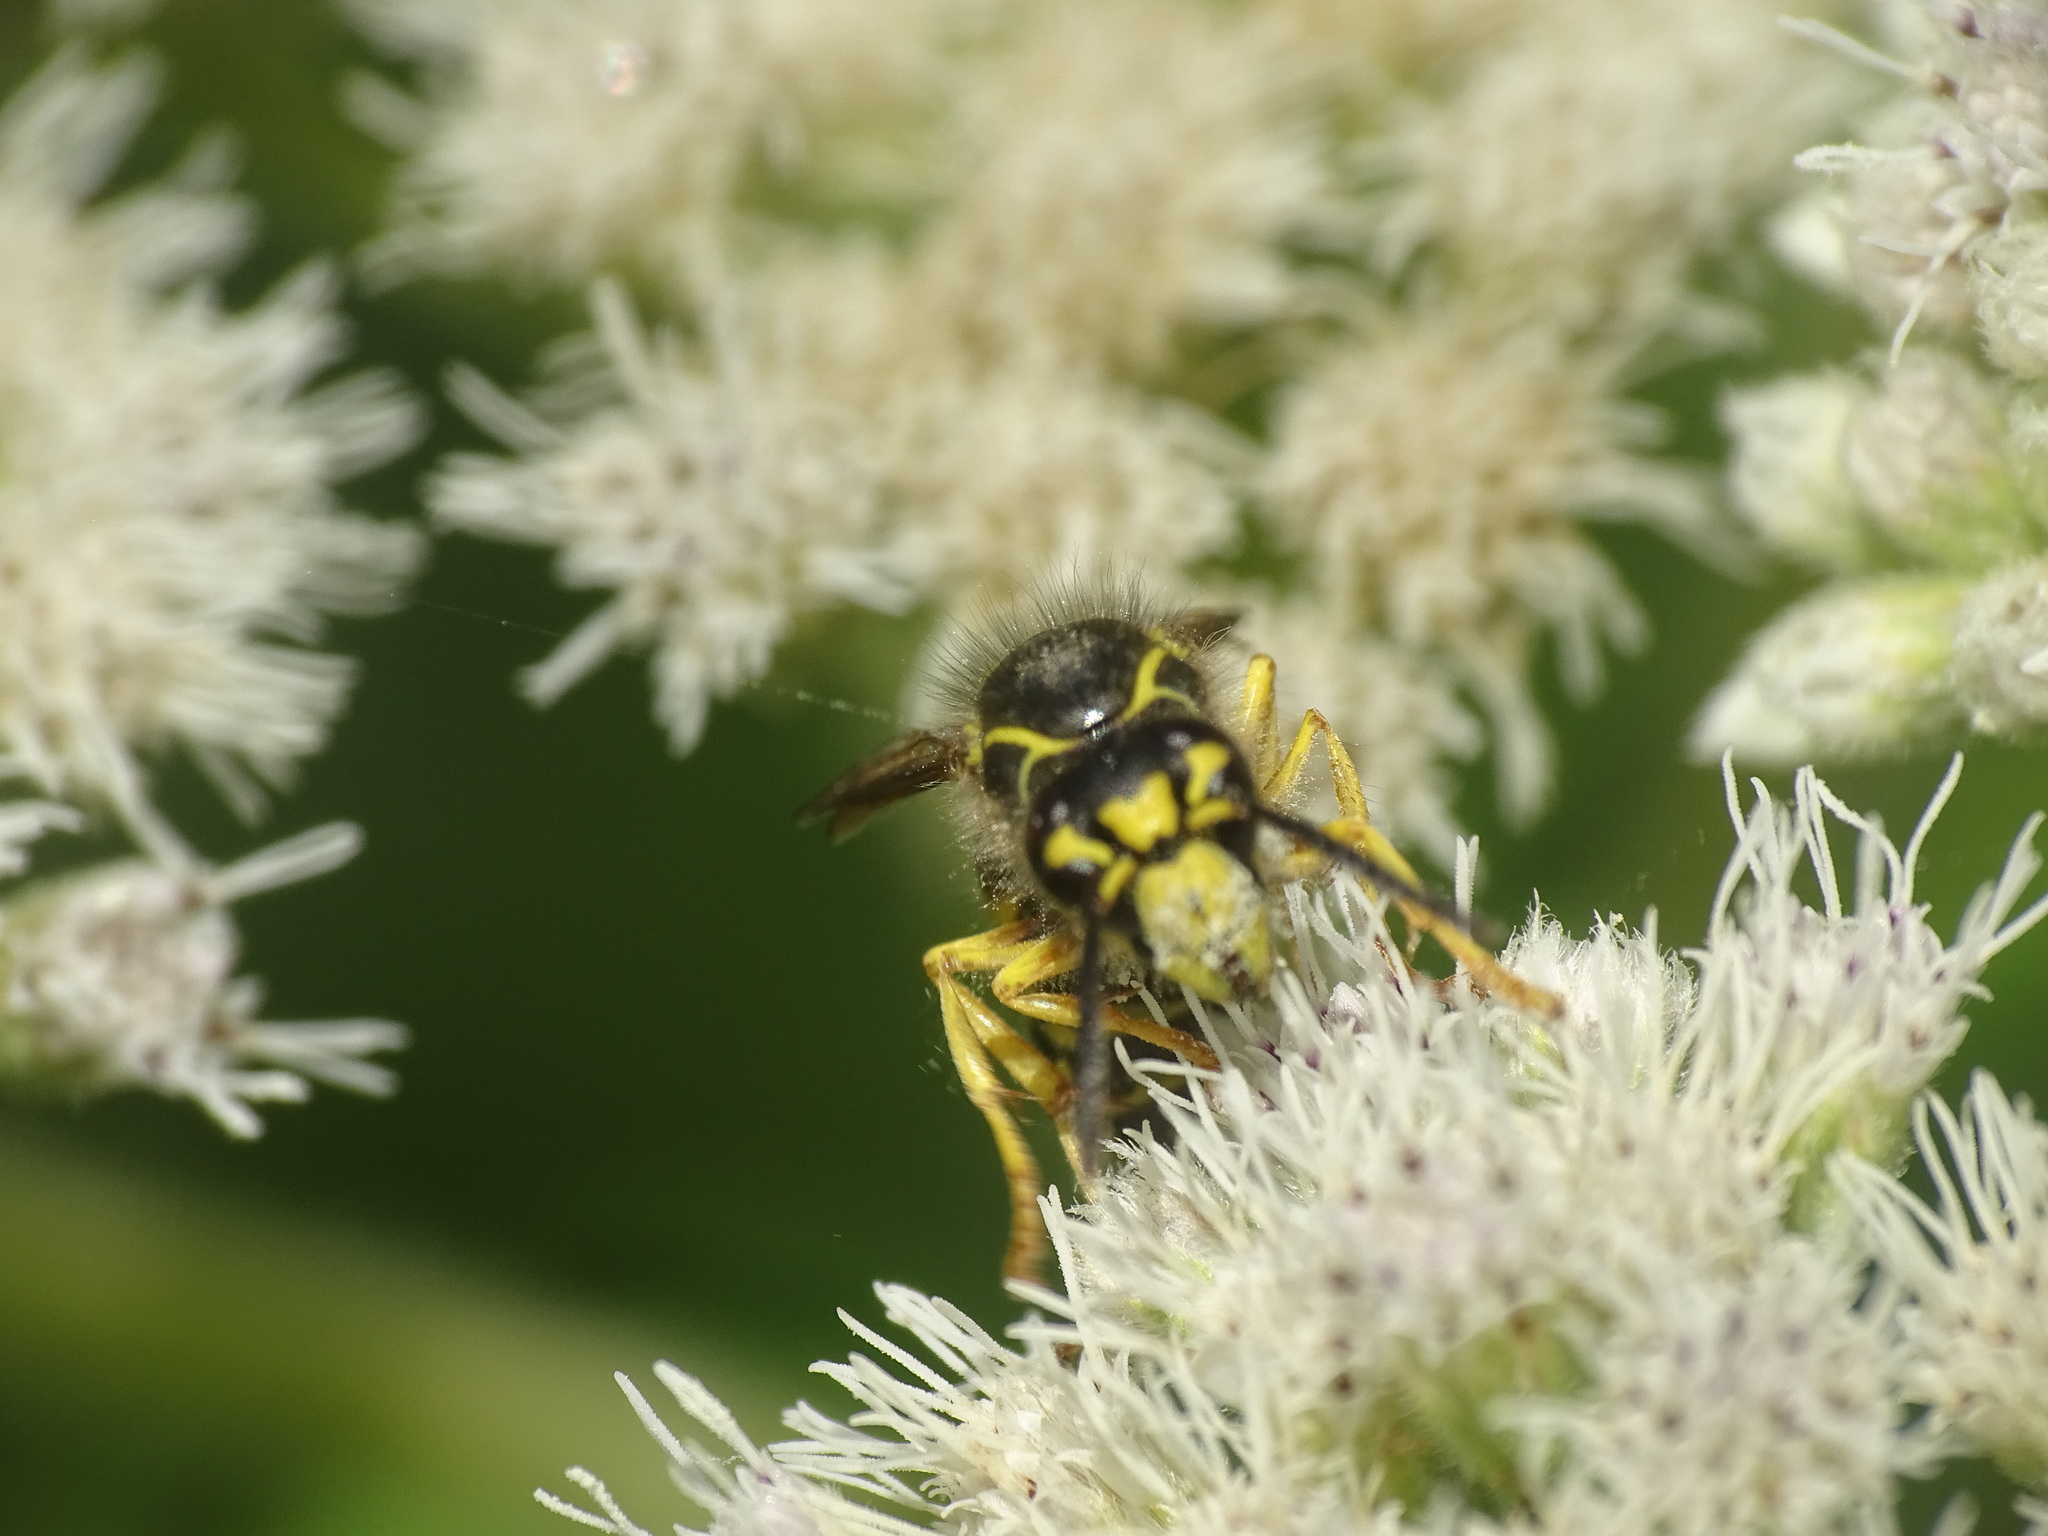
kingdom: Animalia
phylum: Arthropoda
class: Insecta
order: Hymenoptera
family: Vespidae
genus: Dolichovespula
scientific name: Dolichovespula arenaria
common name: Aerial yellowjacket
